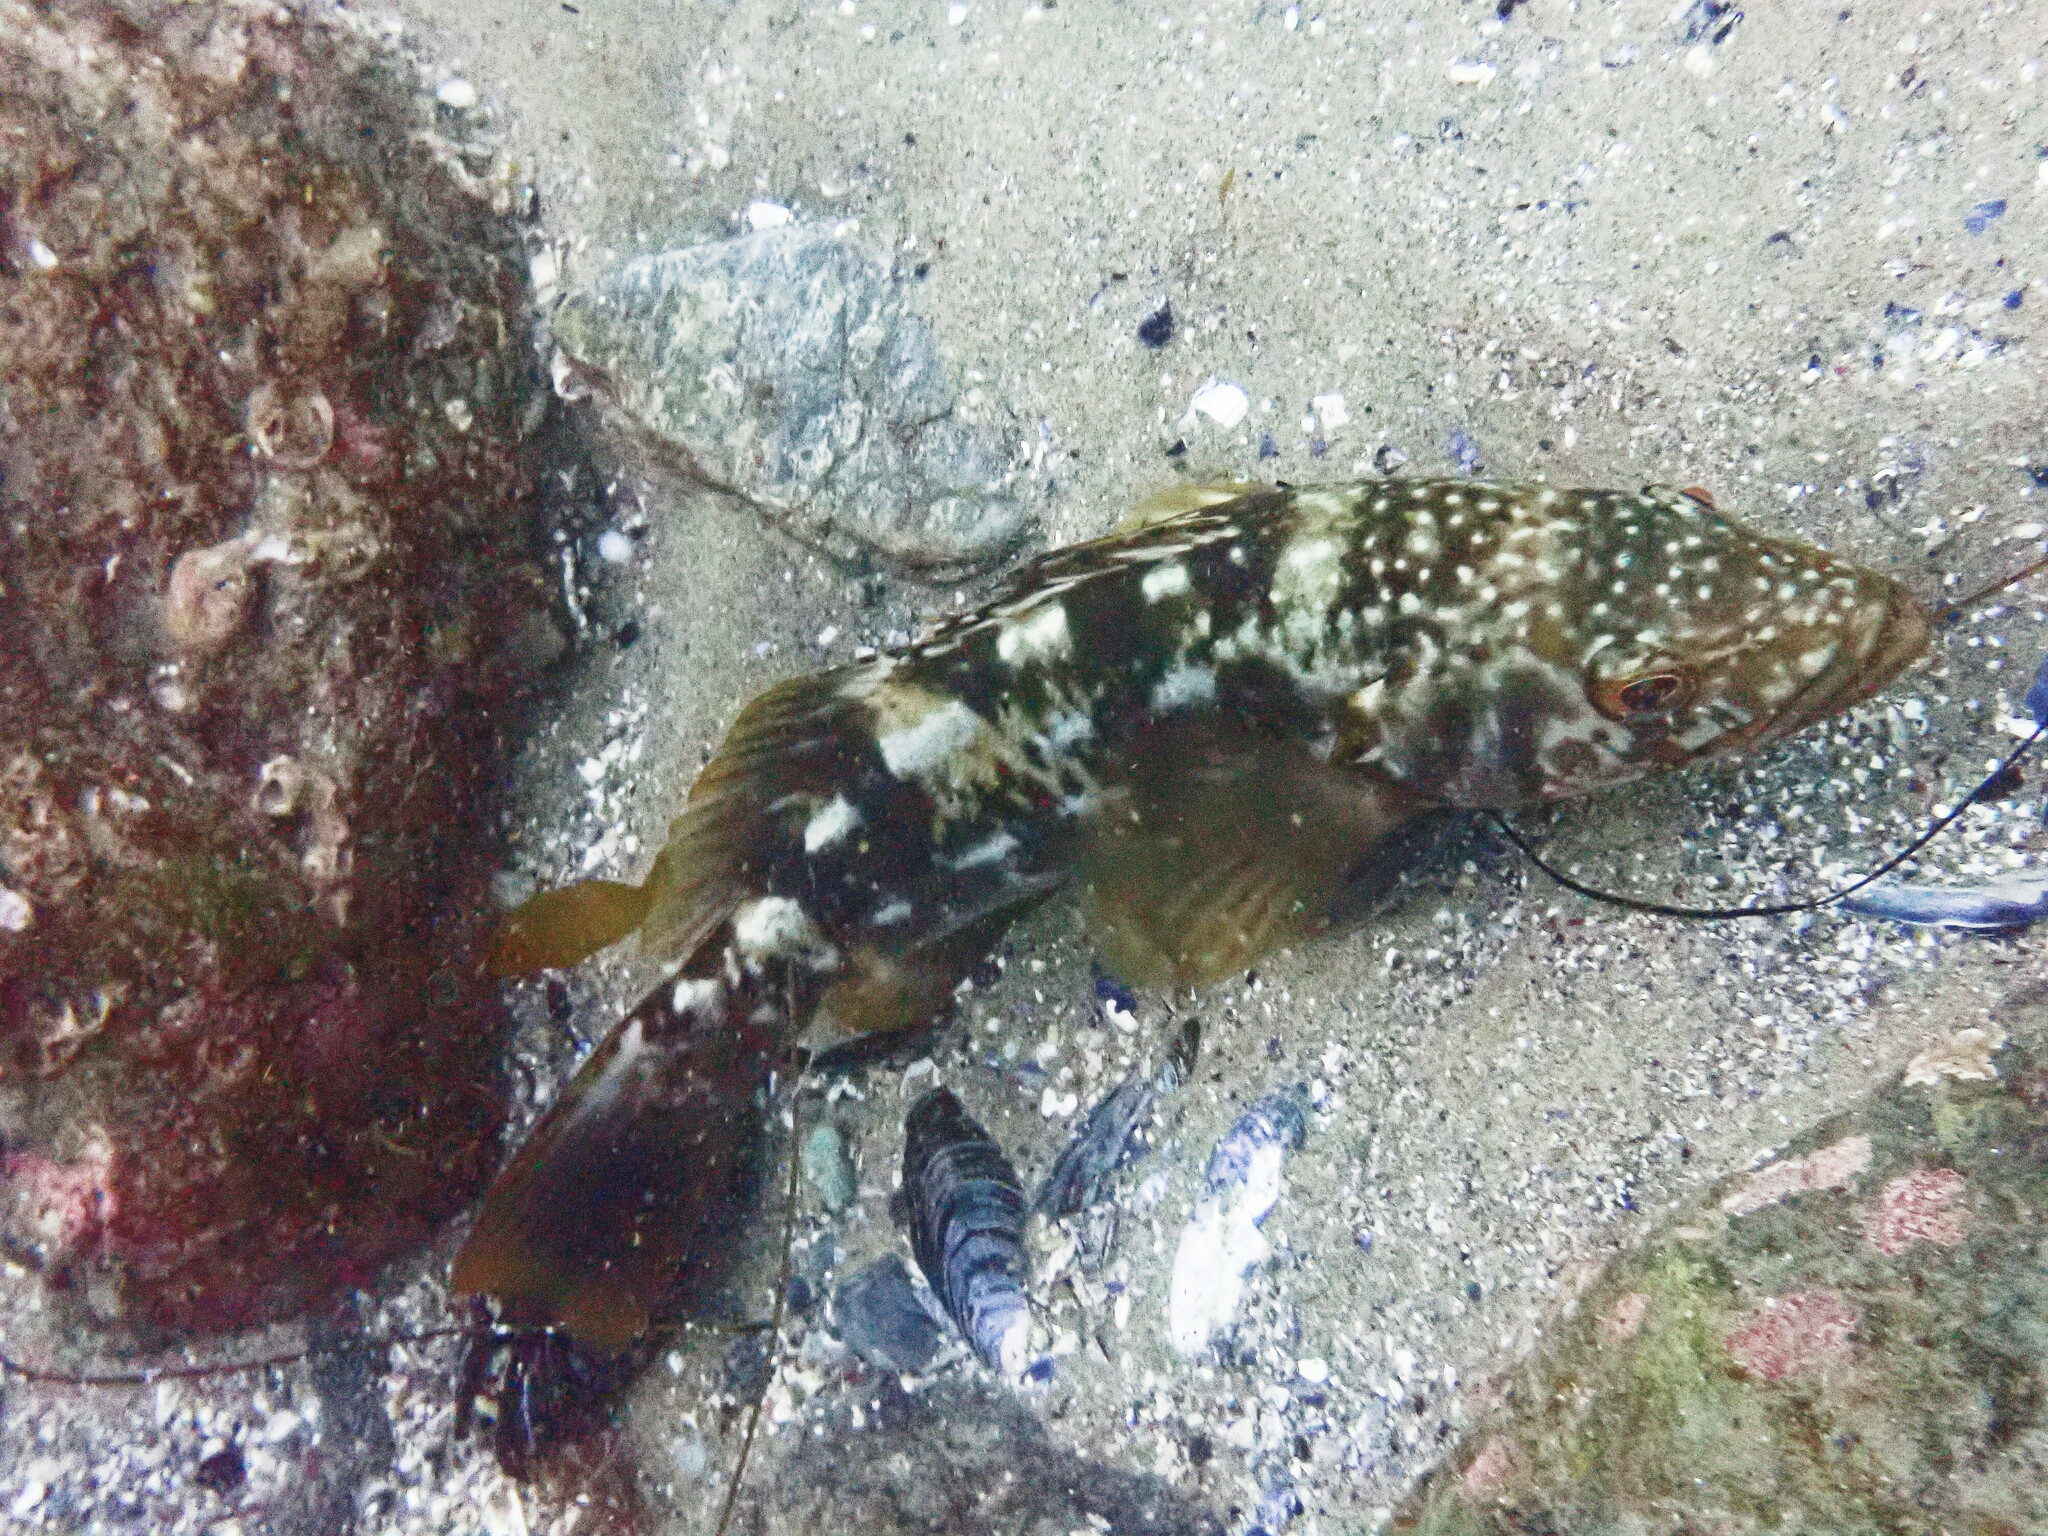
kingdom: Animalia
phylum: Chordata
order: Perciformes
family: Serranidae
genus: Paralabrax
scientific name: Paralabrax clathratus
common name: Kelp bass
